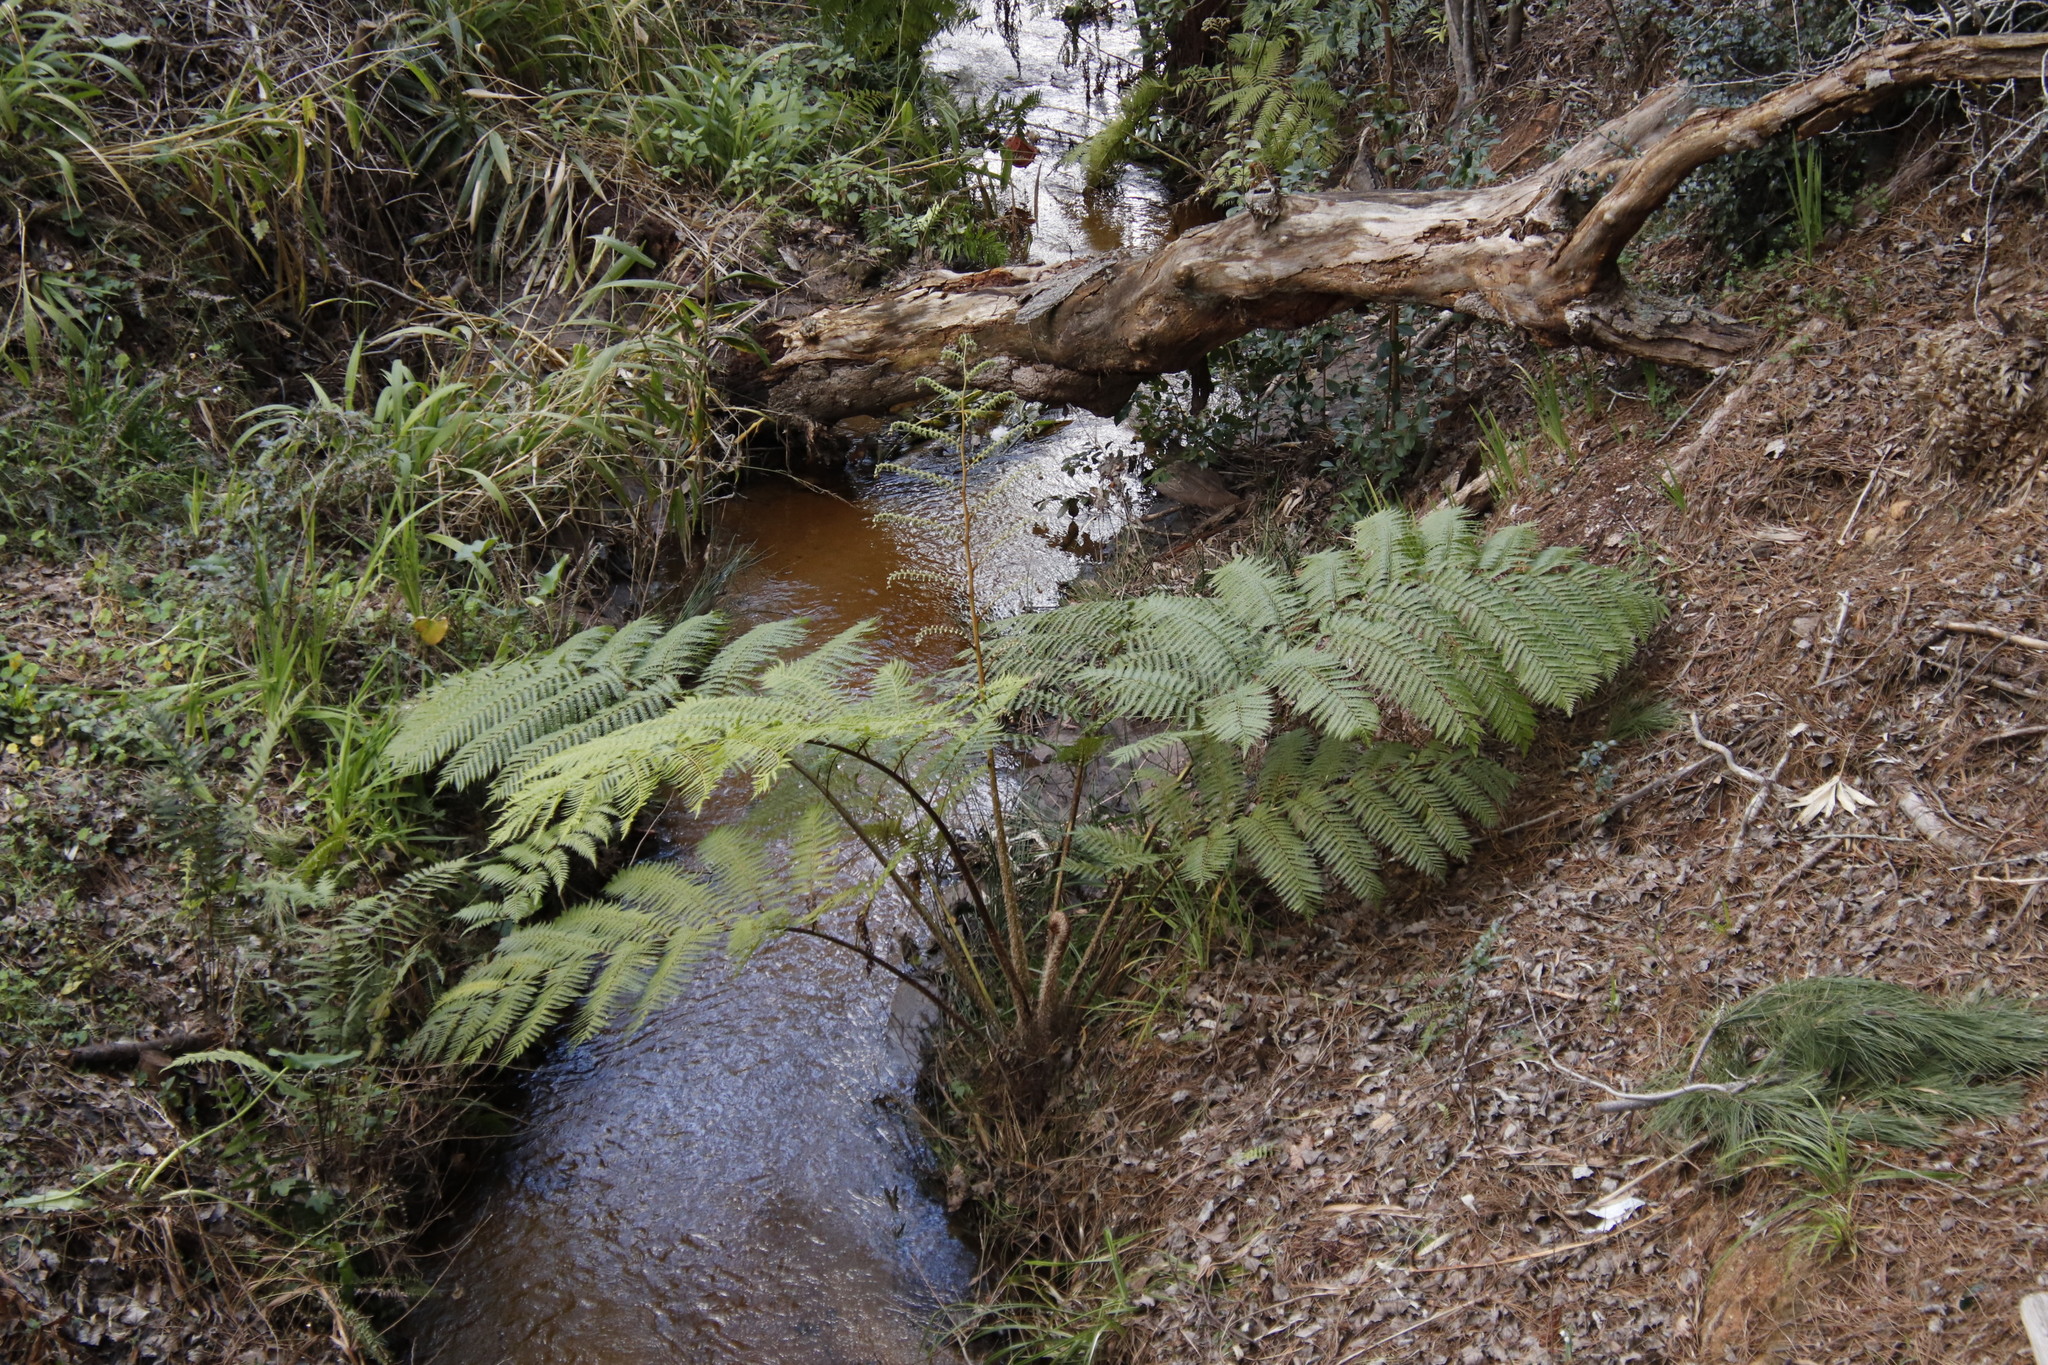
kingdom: Plantae
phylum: Tracheophyta
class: Polypodiopsida
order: Cyatheales
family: Cyatheaceae
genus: Sphaeropteris
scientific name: Sphaeropteris cooperi
